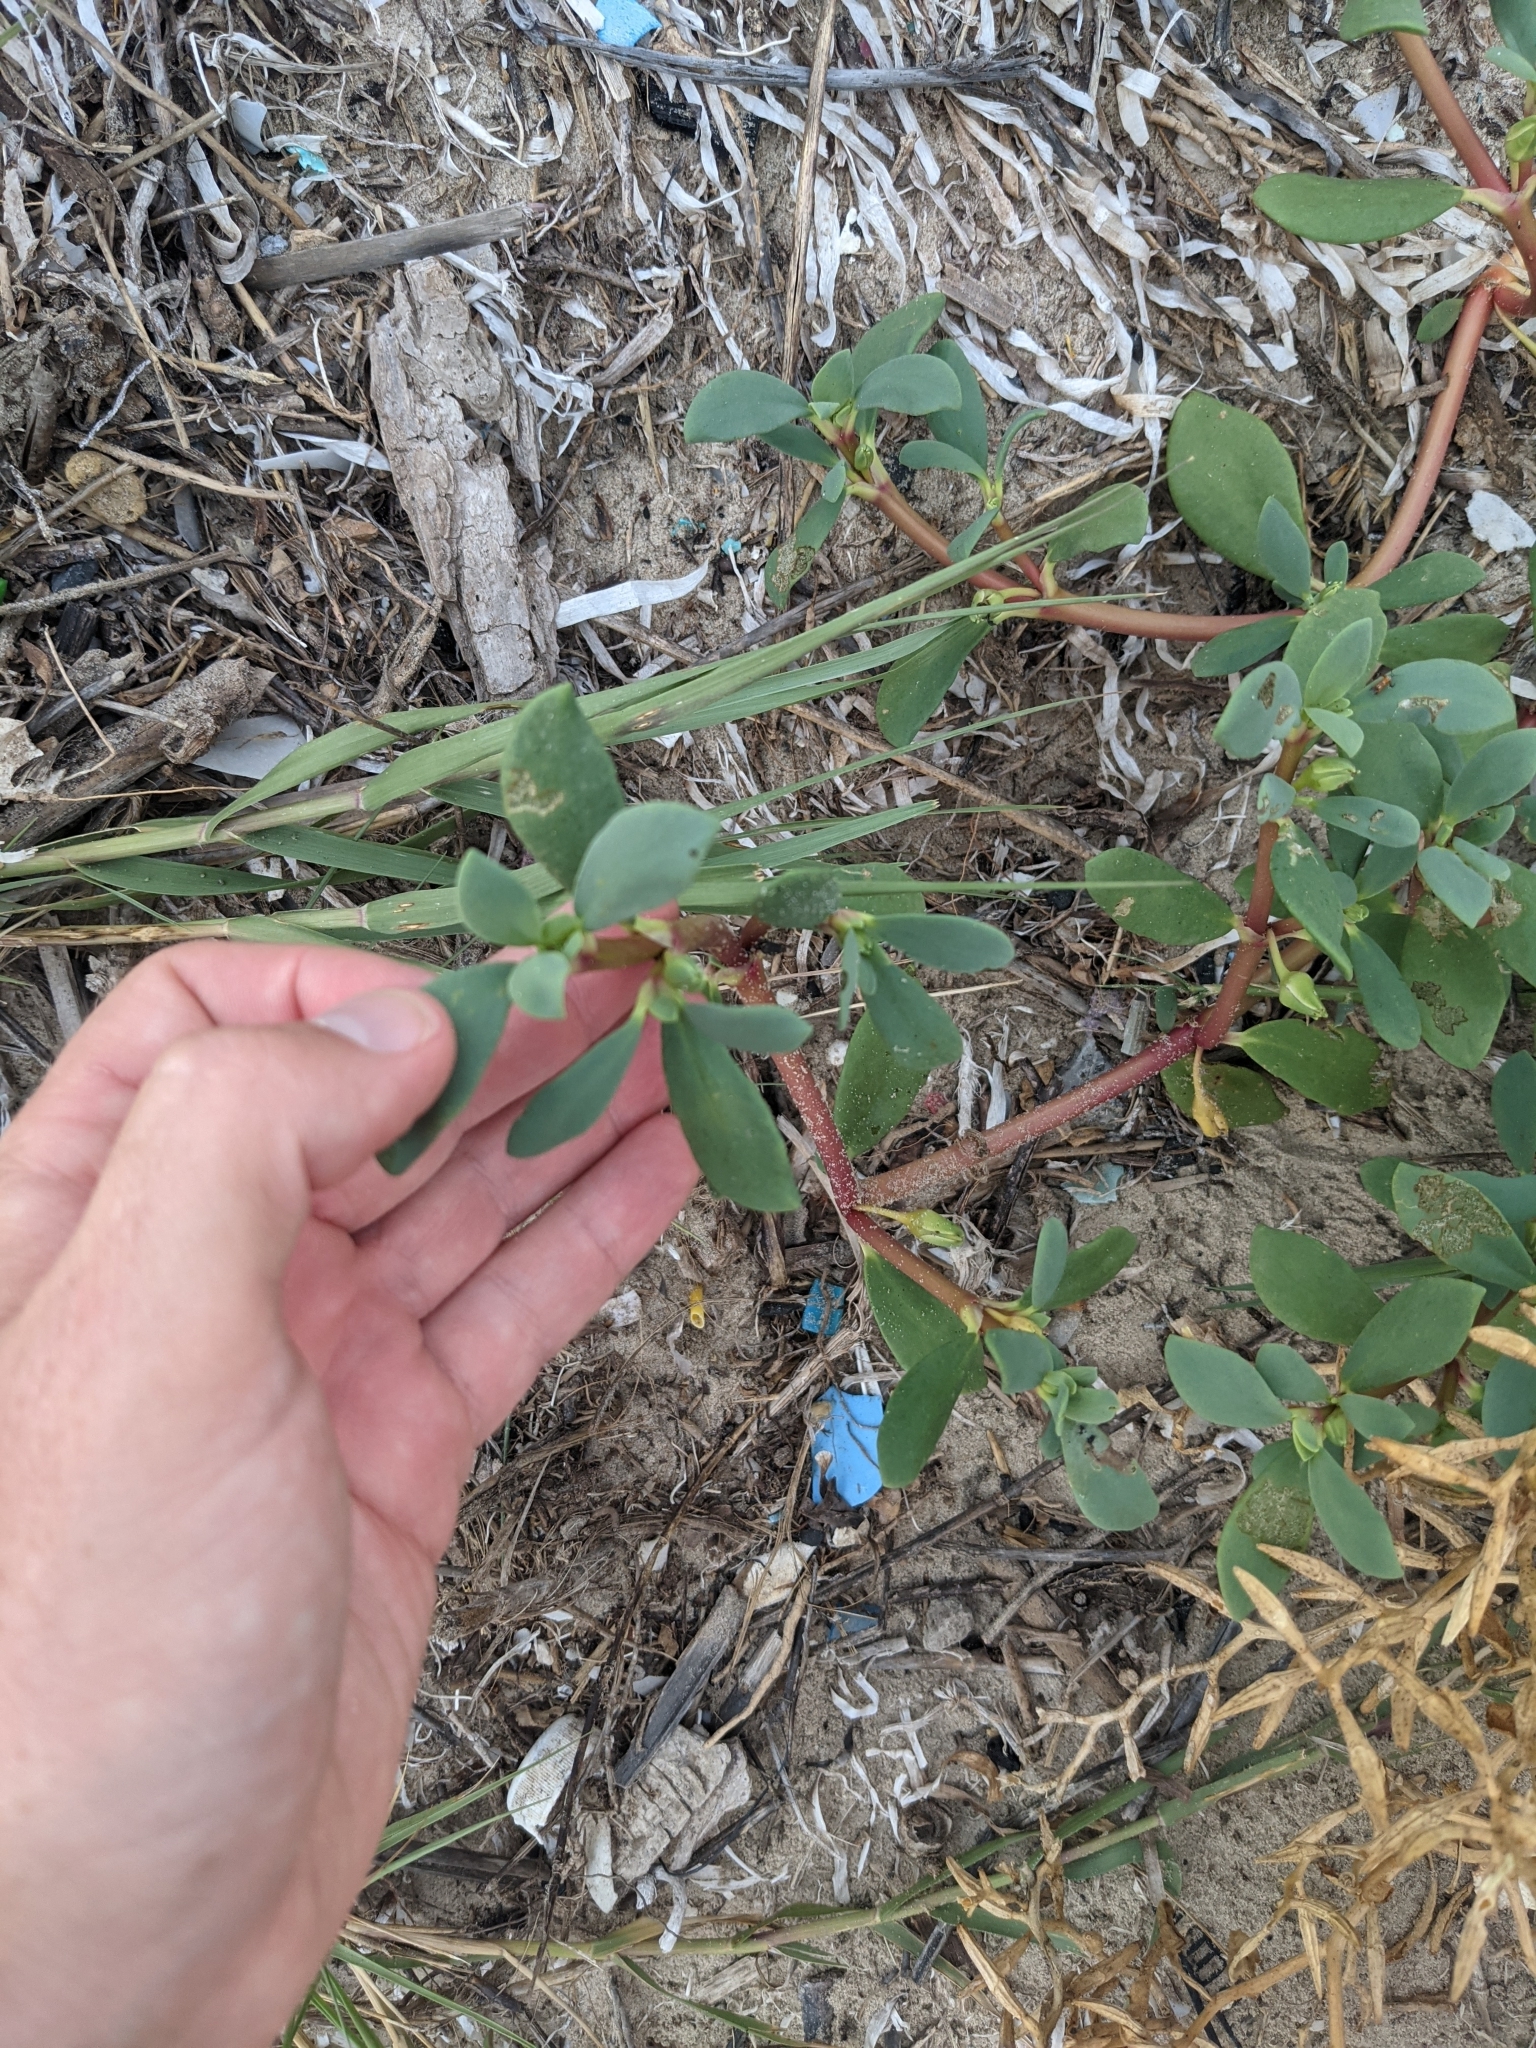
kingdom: Plantae
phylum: Tracheophyta
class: Magnoliopsida
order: Caryophyllales
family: Aizoaceae
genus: Sesuvium
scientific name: Sesuvium portulacastrum
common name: Sea-purslane
